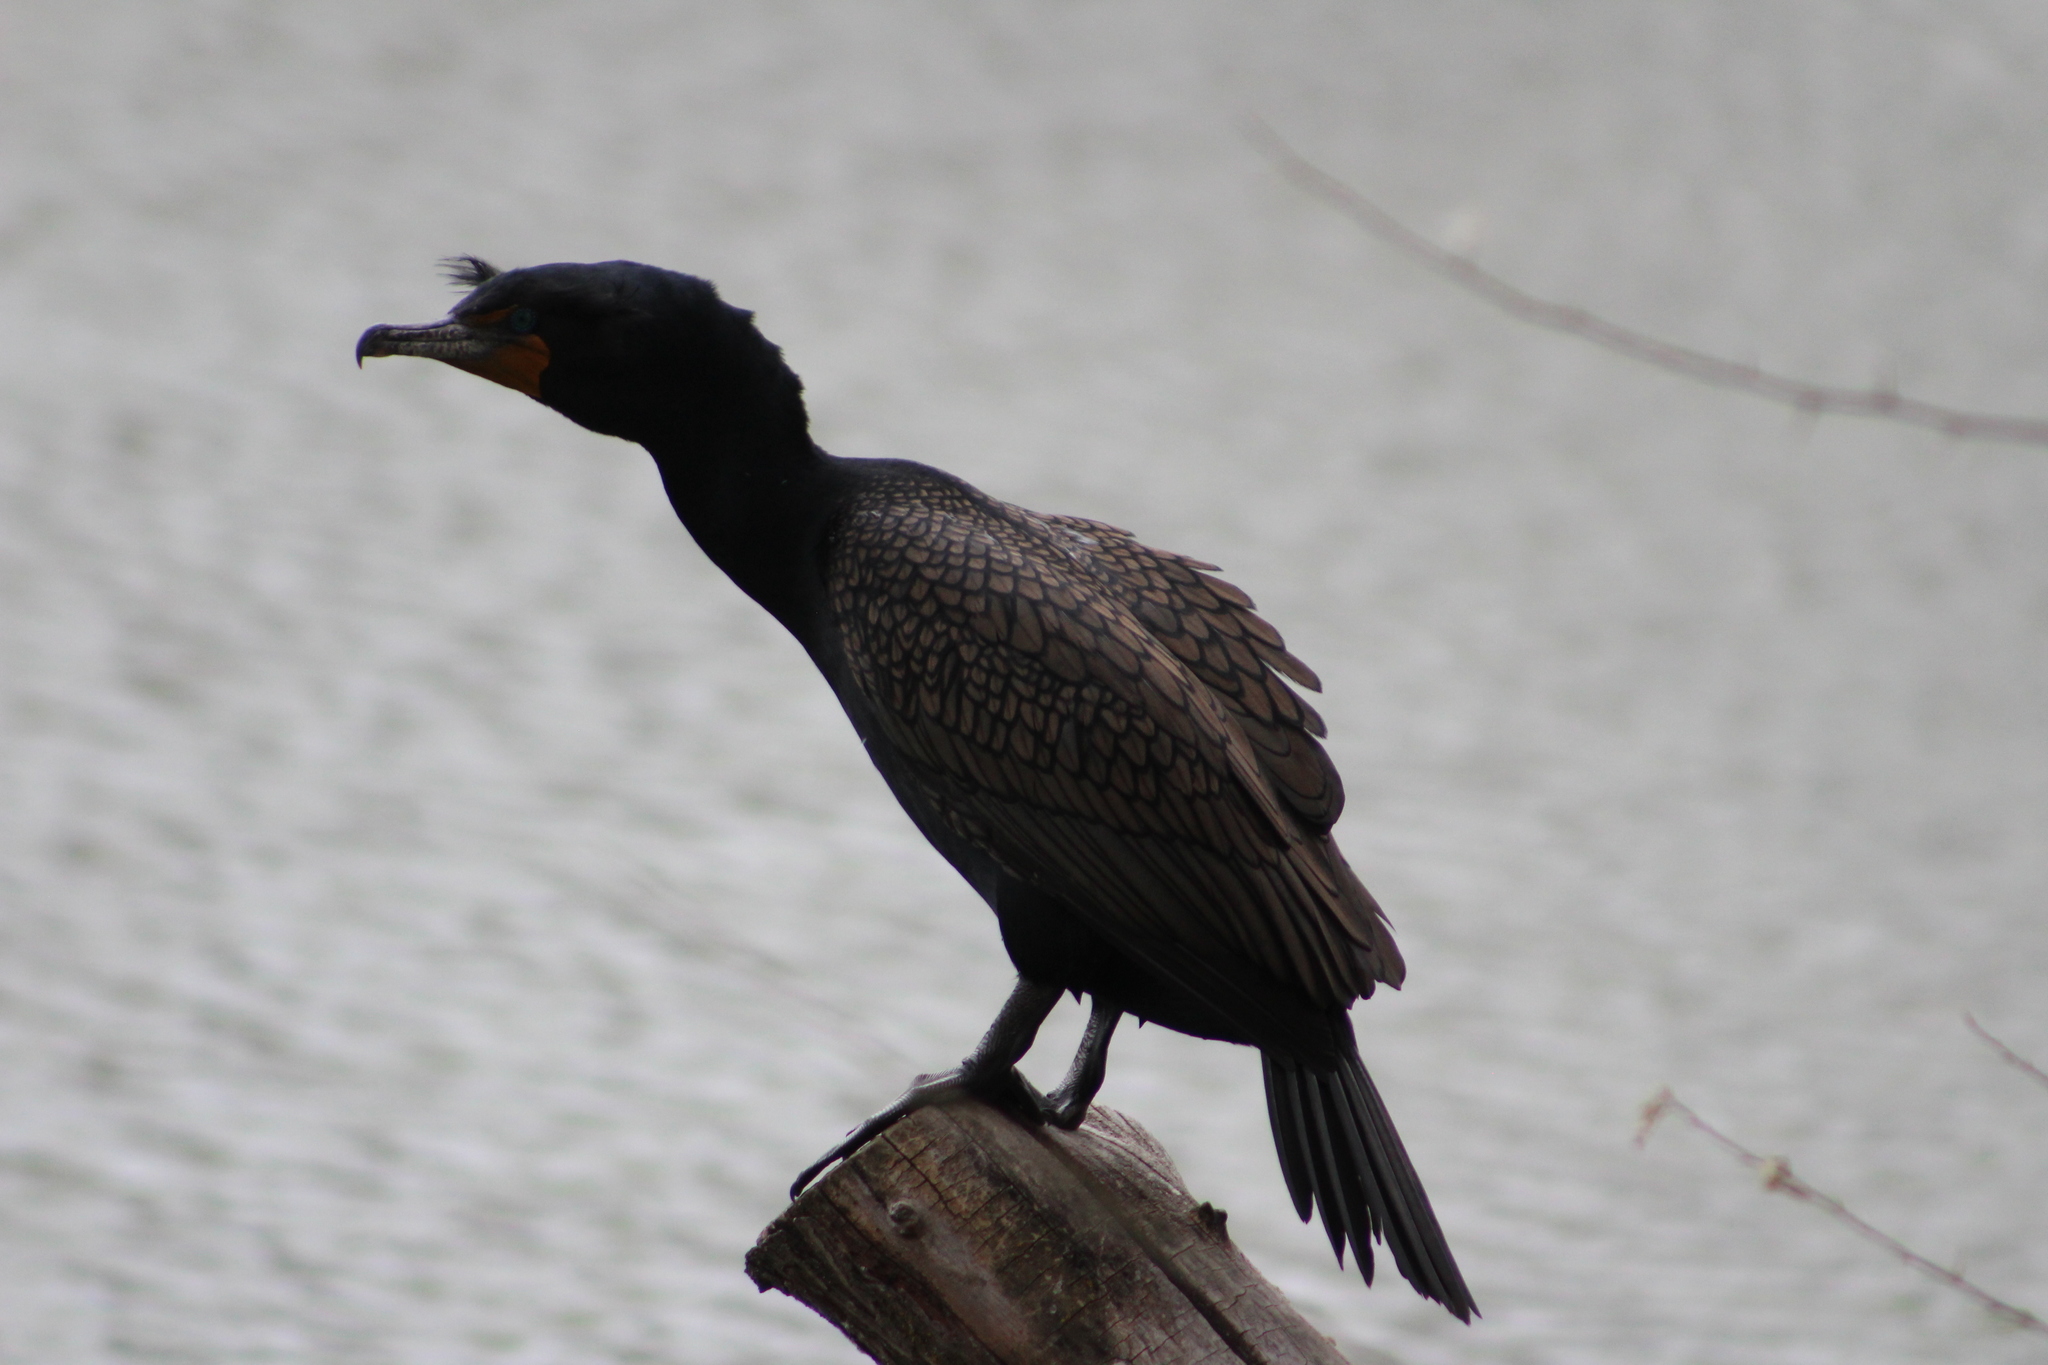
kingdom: Animalia
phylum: Chordata
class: Aves
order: Suliformes
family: Phalacrocoracidae
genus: Phalacrocorax
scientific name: Phalacrocorax auritus
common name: Double-crested cormorant
